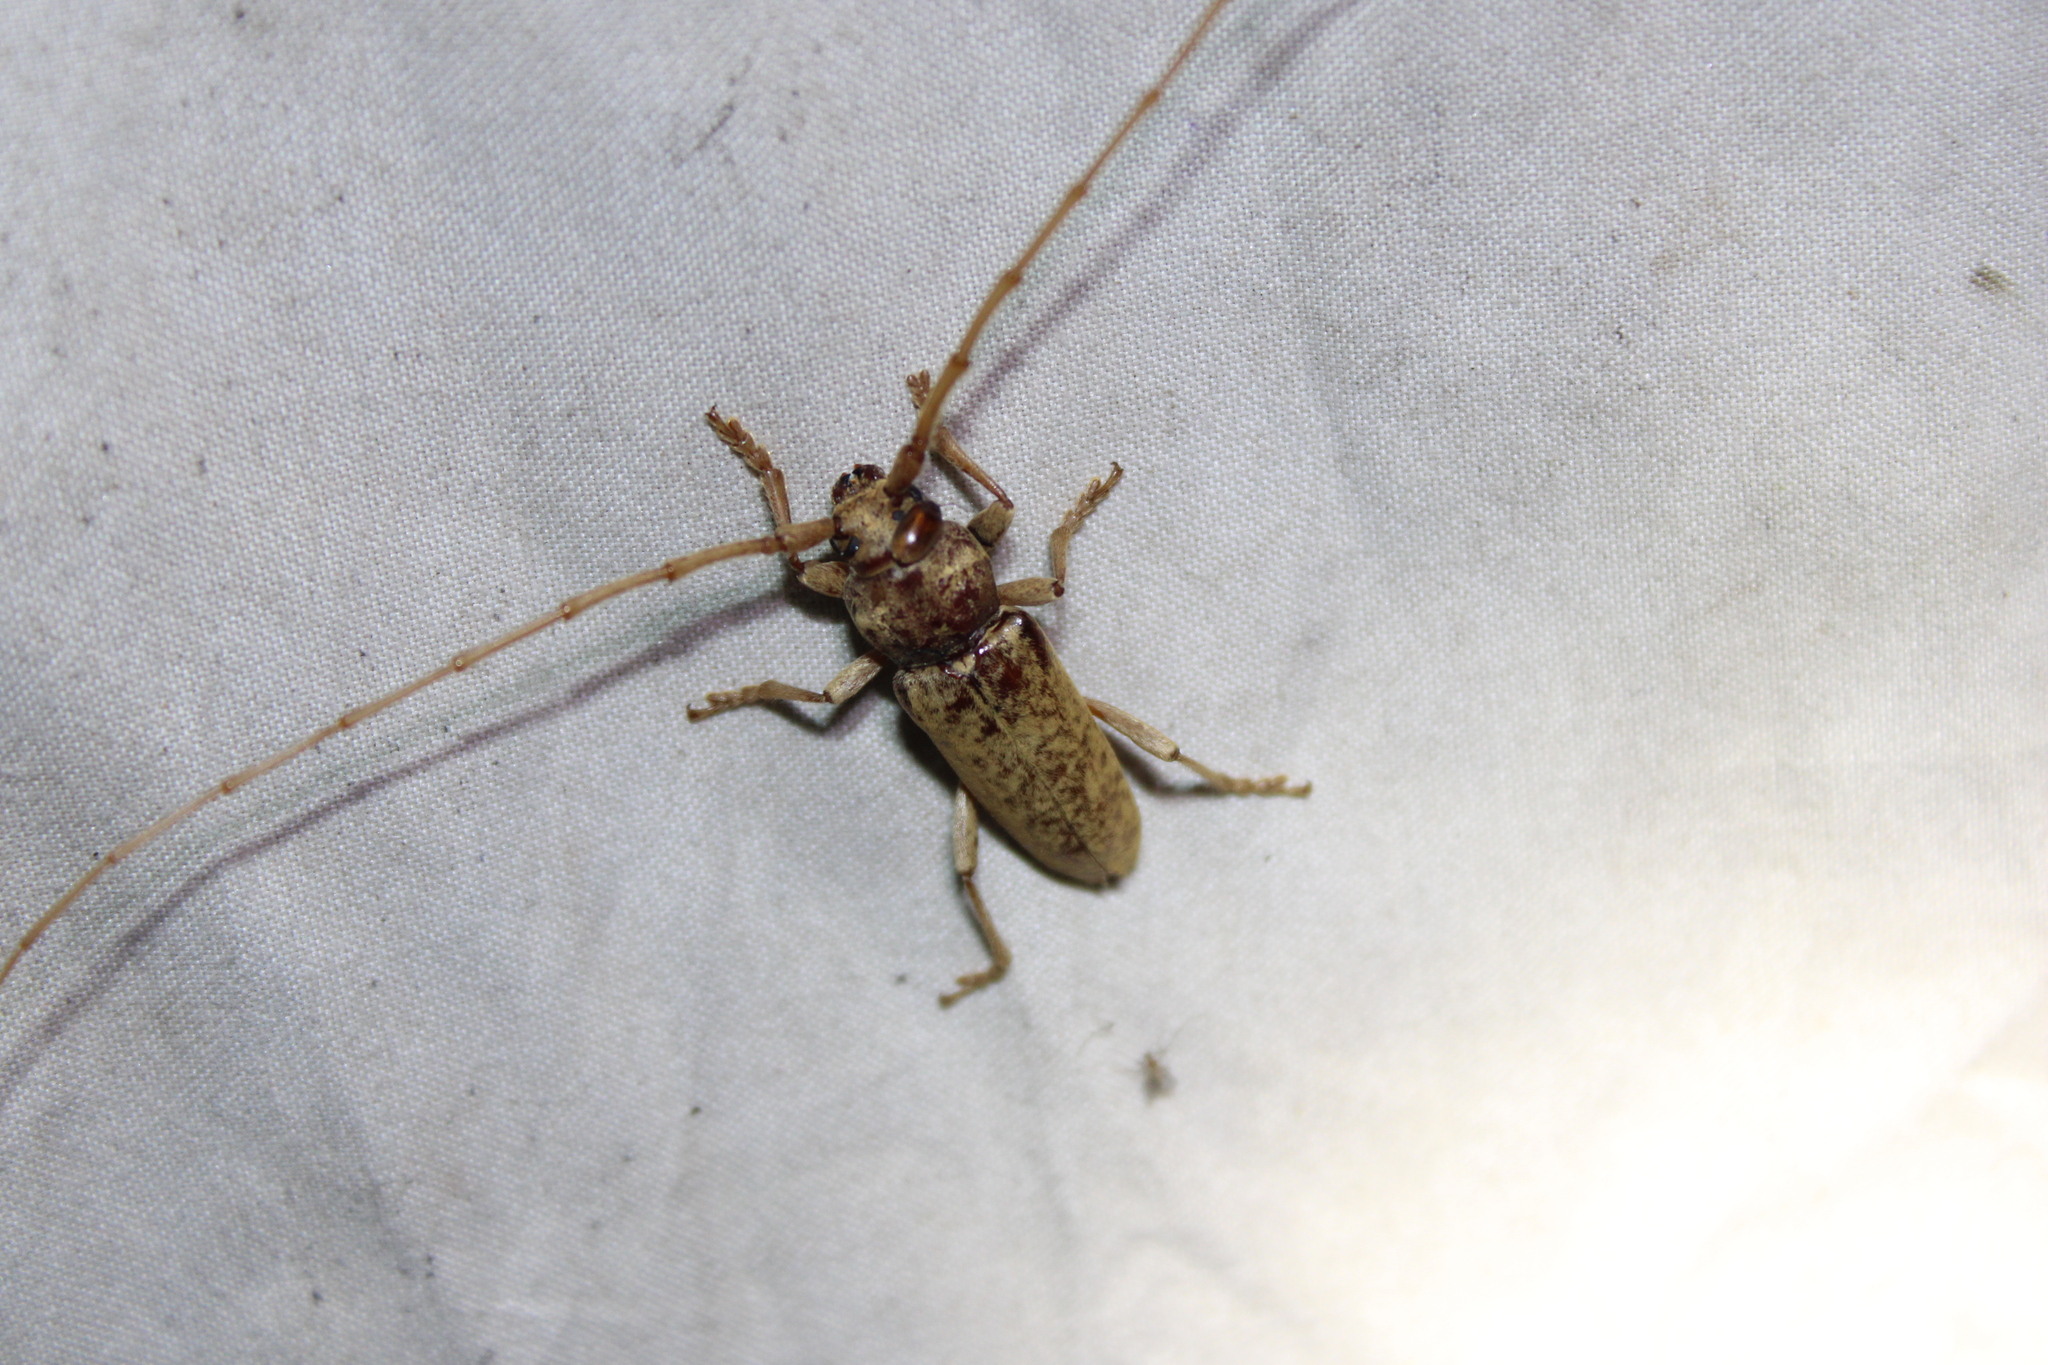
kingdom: Animalia
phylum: Arthropoda
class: Insecta
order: Coleoptera
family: Cerambycidae
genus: Enaphalodes
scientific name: Enaphalodes rufulus
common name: Red oak borer
